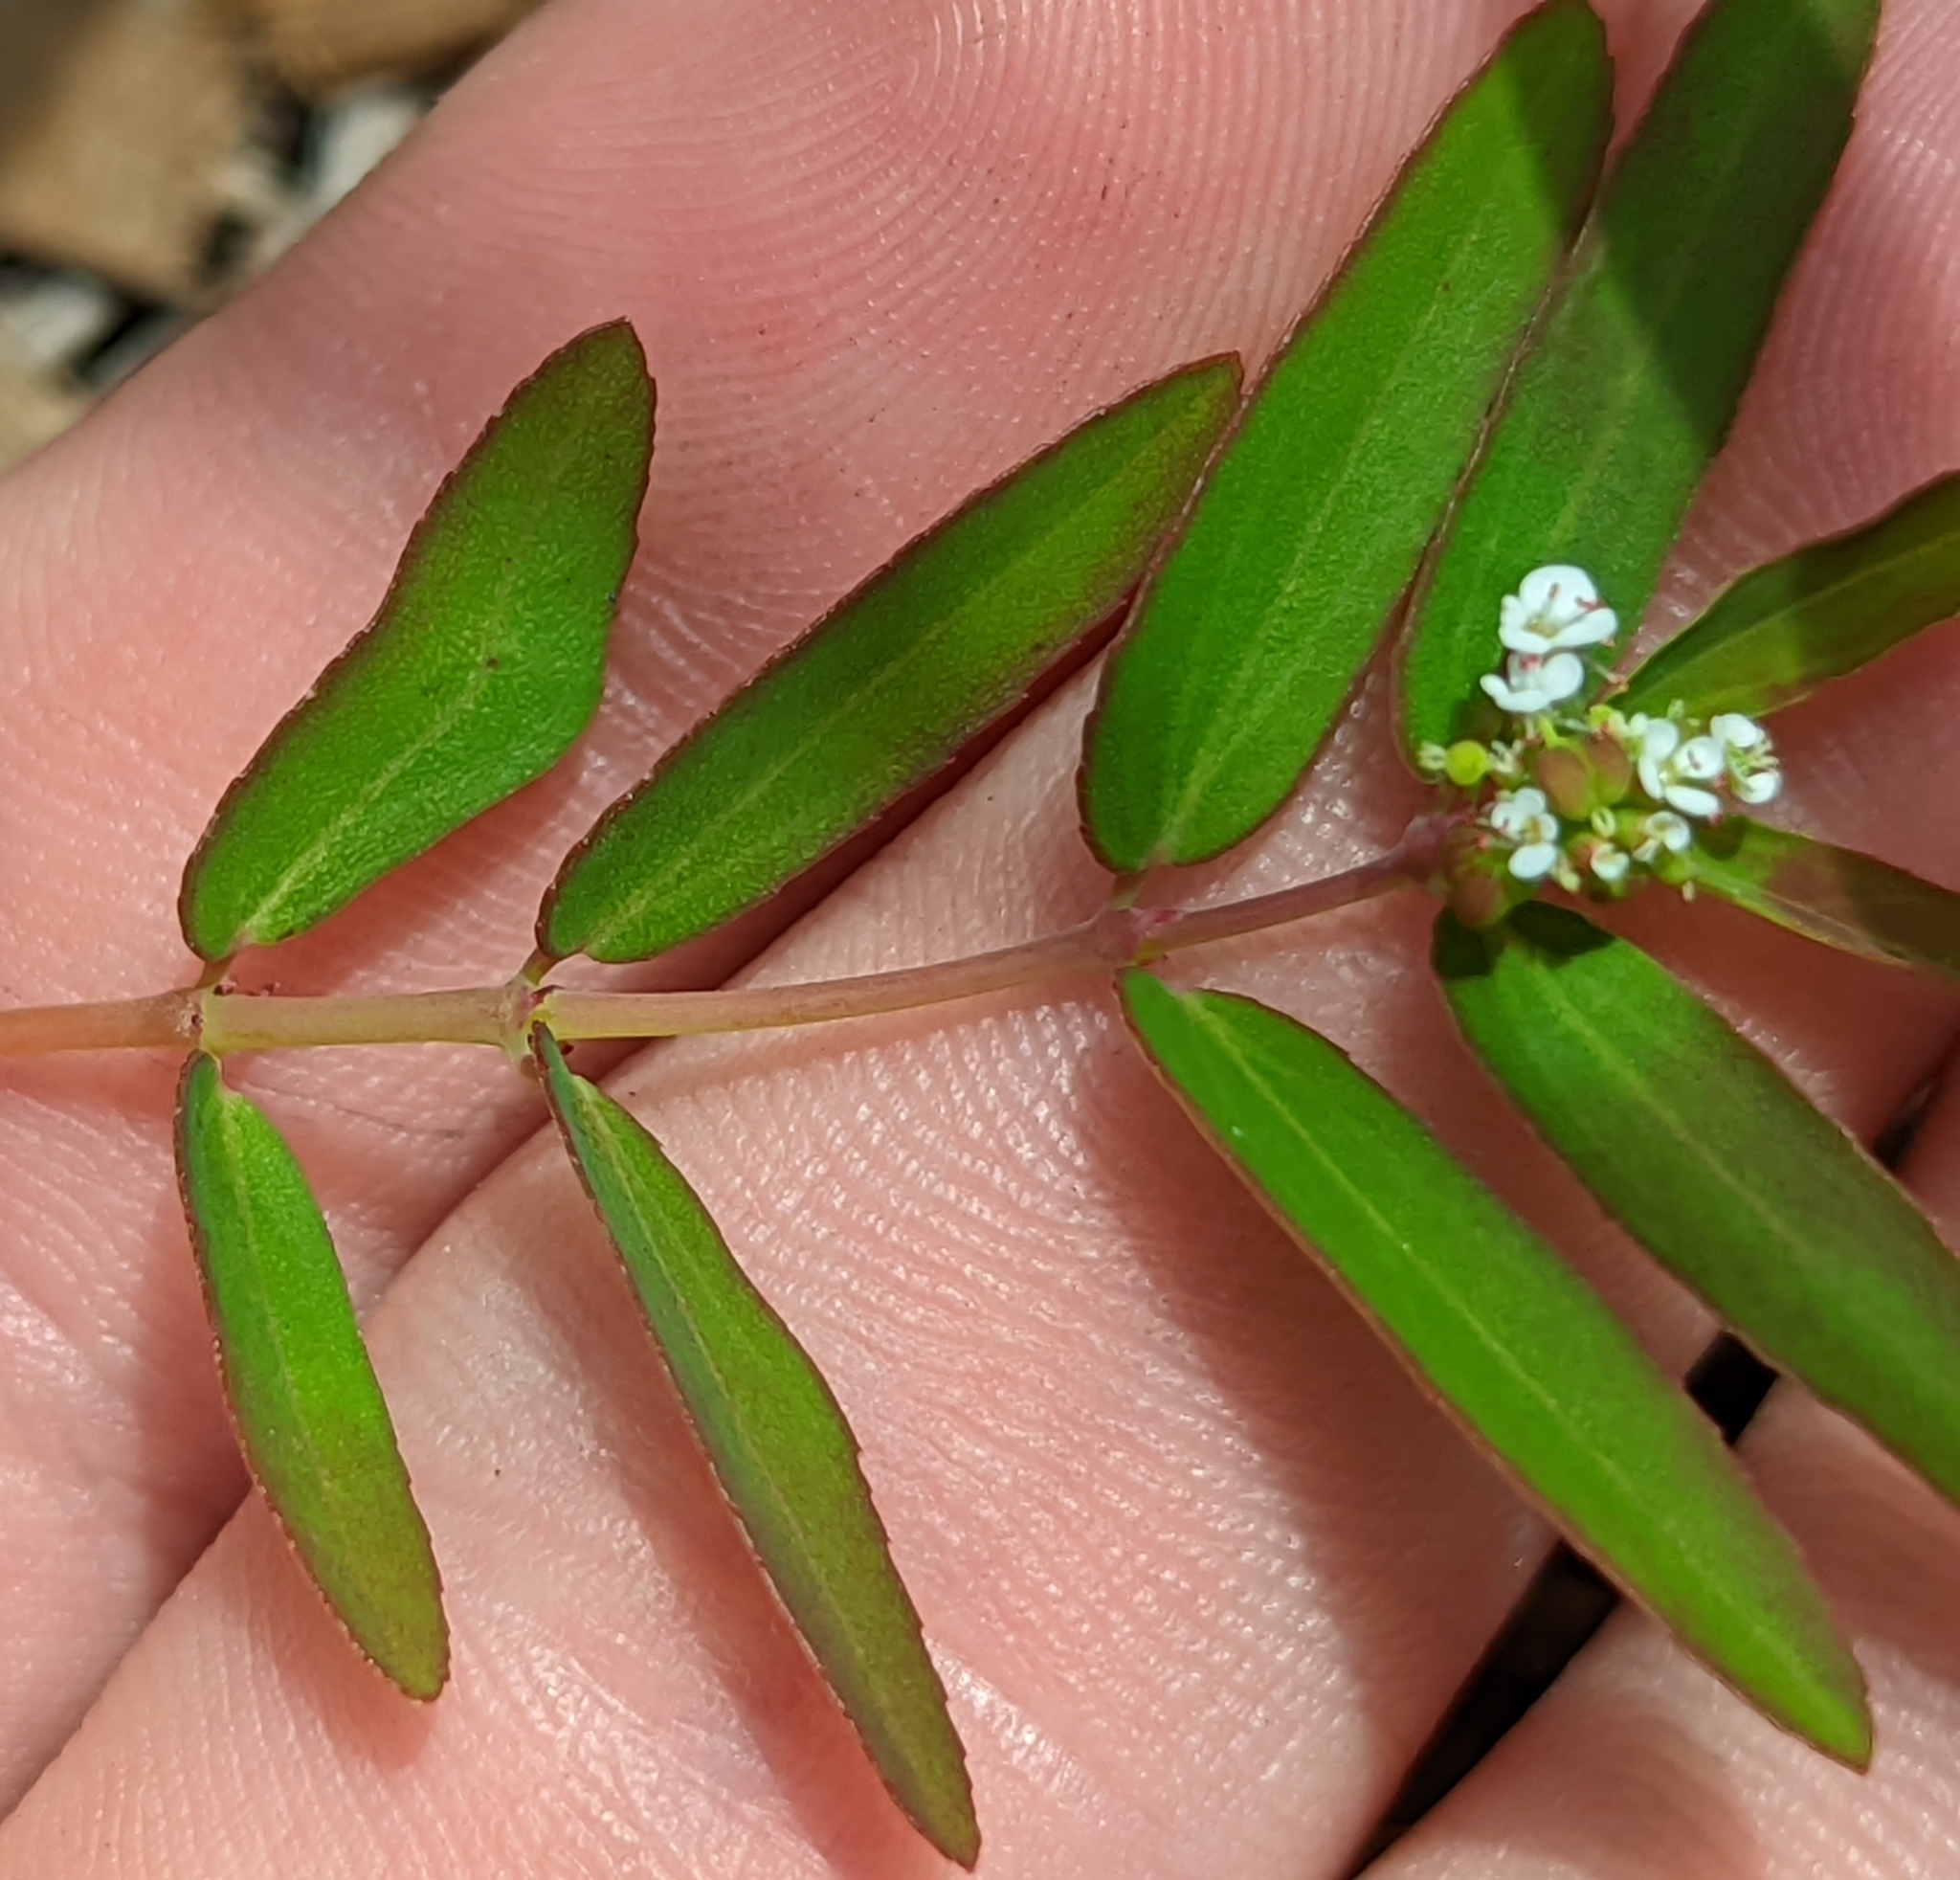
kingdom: Plantae
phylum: Tracheophyta
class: Magnoliopsida
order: Malpighiales
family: Euphorbiaceae
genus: Euphorbia
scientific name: Euphorbia hypericifolia
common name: Graceful sandmat
